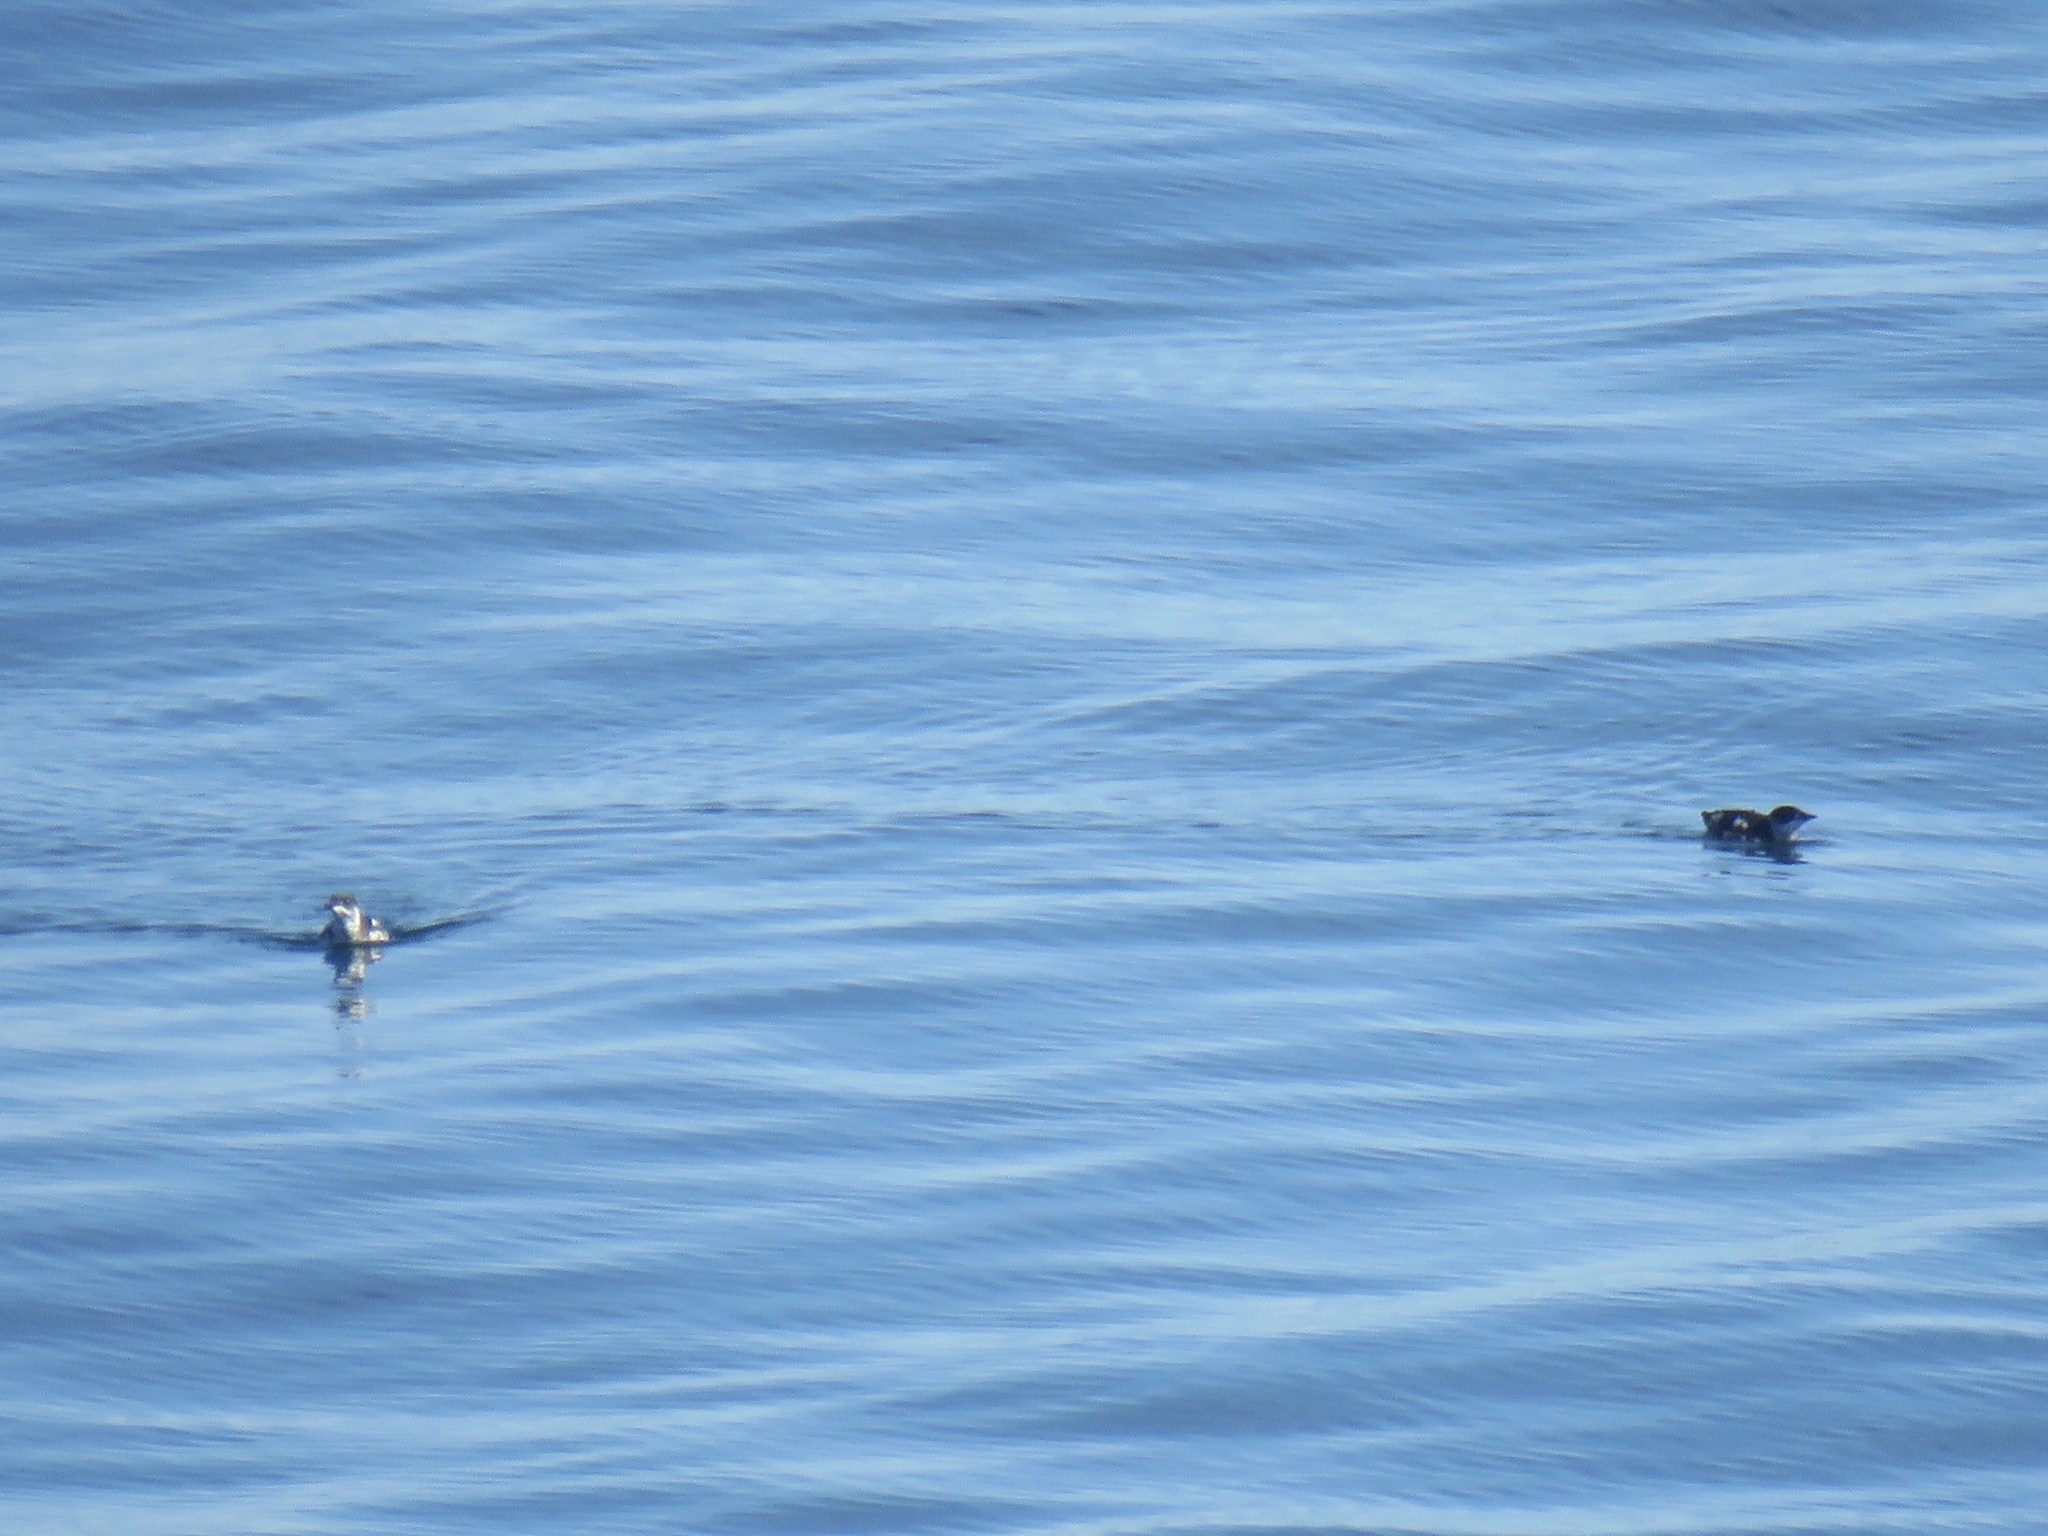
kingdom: Animalia
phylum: Chordata
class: Aves
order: Charadriiformes
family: Alcidae
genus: Brachyramphus
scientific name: Brachyramphus marmoratus
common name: Marbled murrelet
